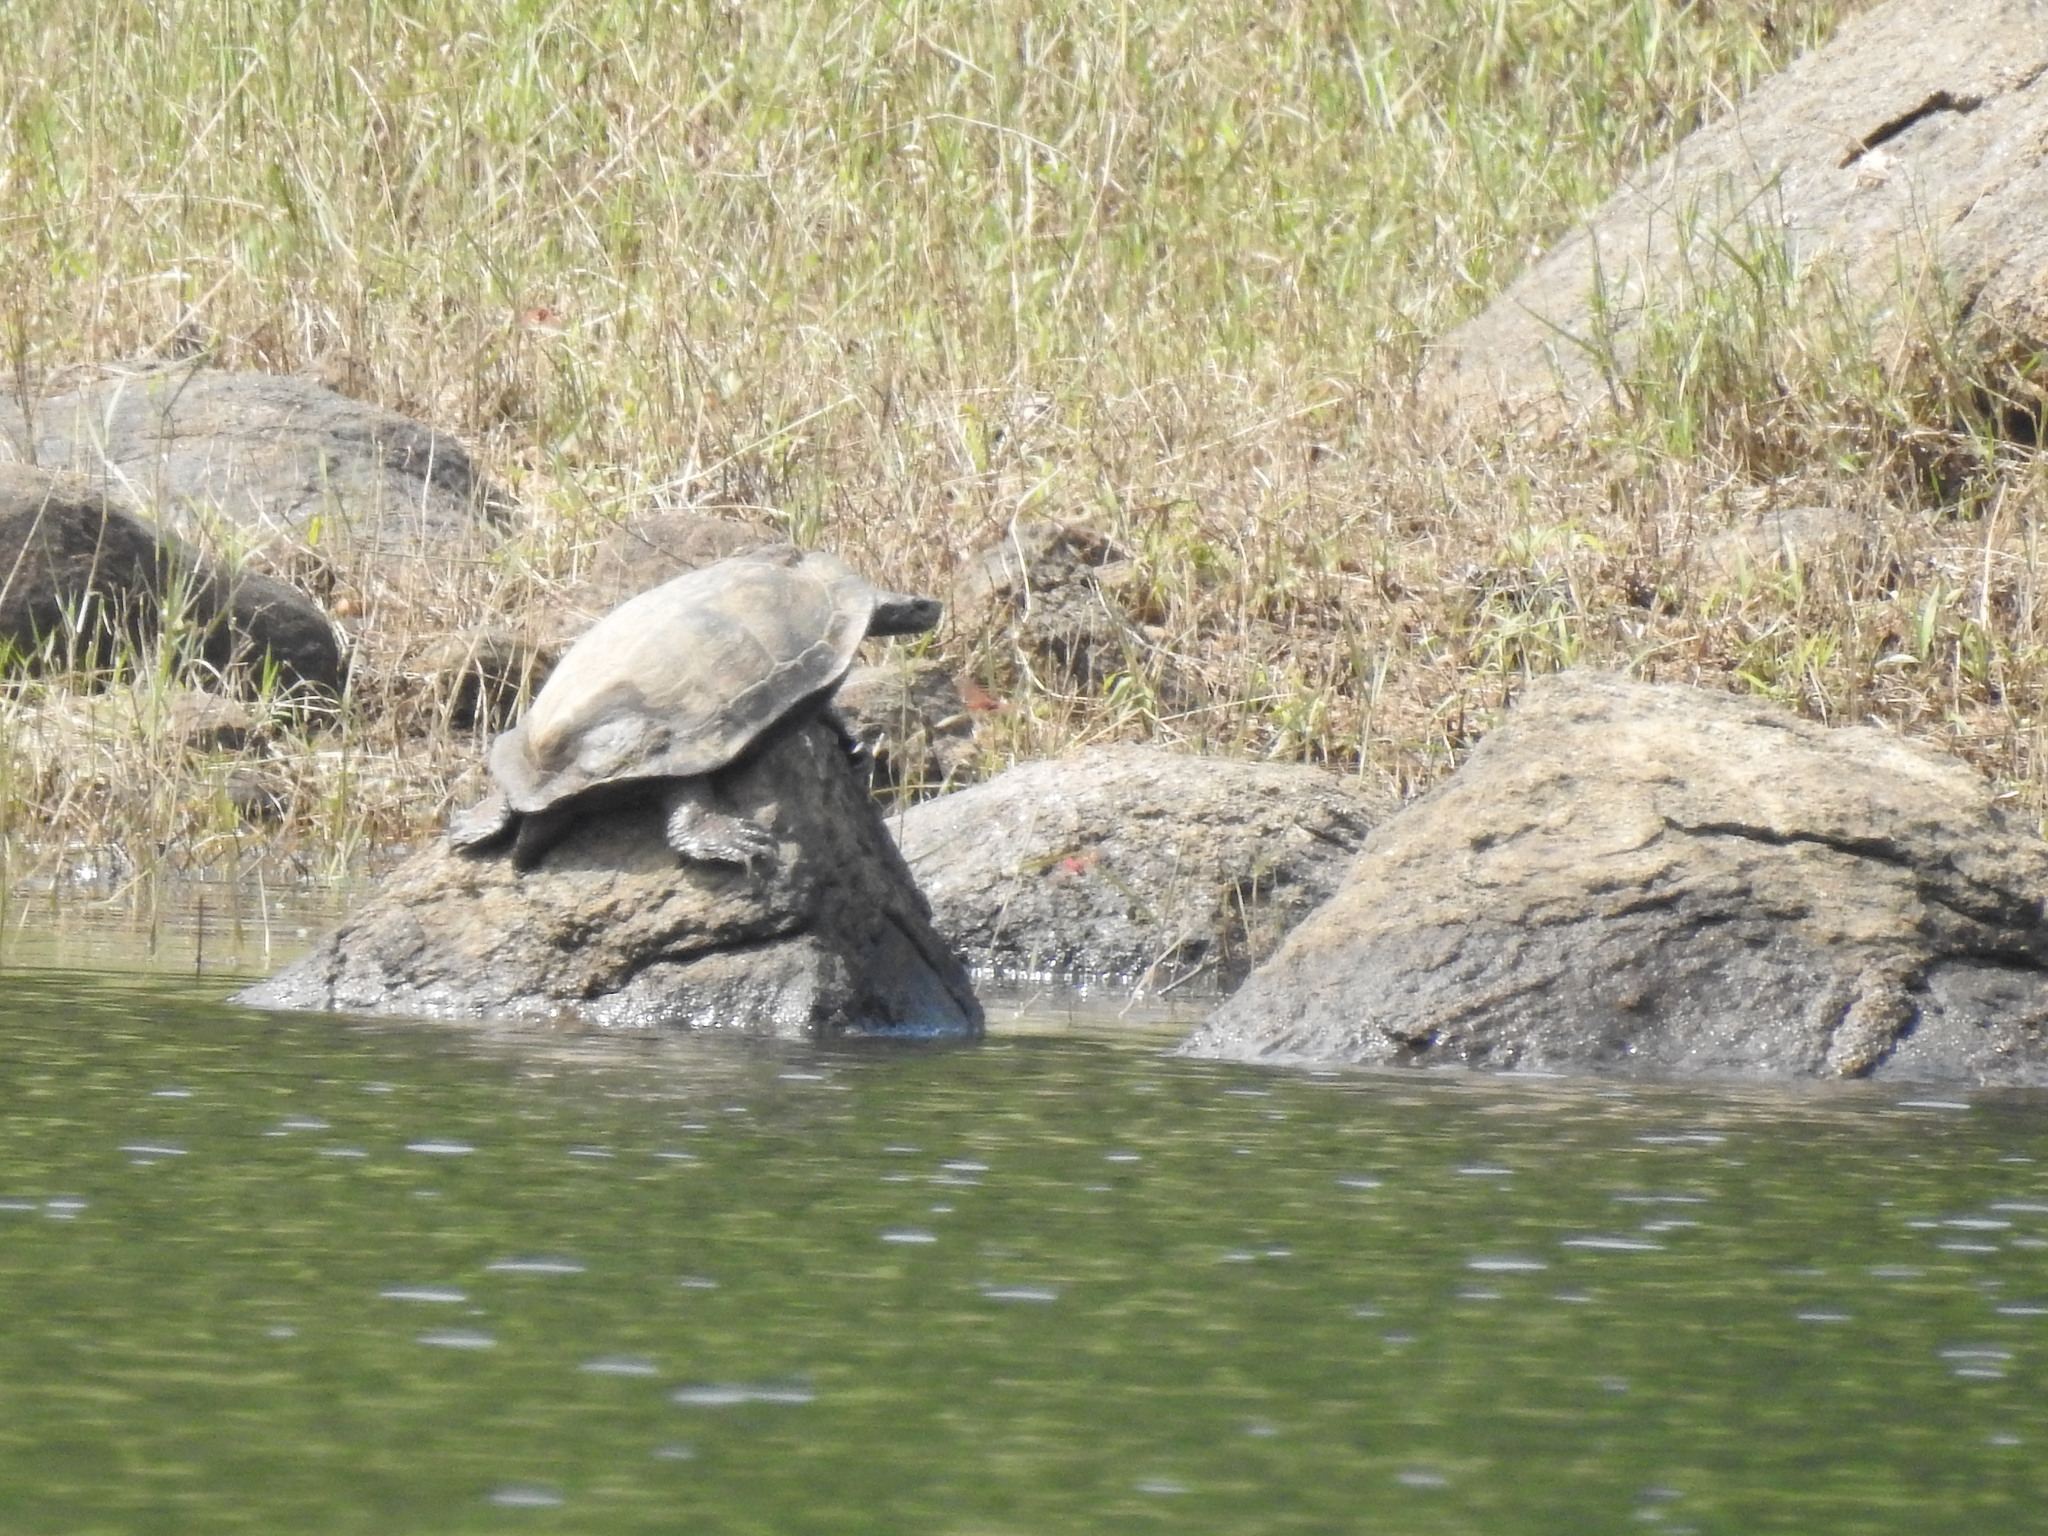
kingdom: Animalia
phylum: Chordata
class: Testudines
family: Geoemydidae
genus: Melanochelys
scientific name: Melanochelys trijuga
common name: Indian black turtle
